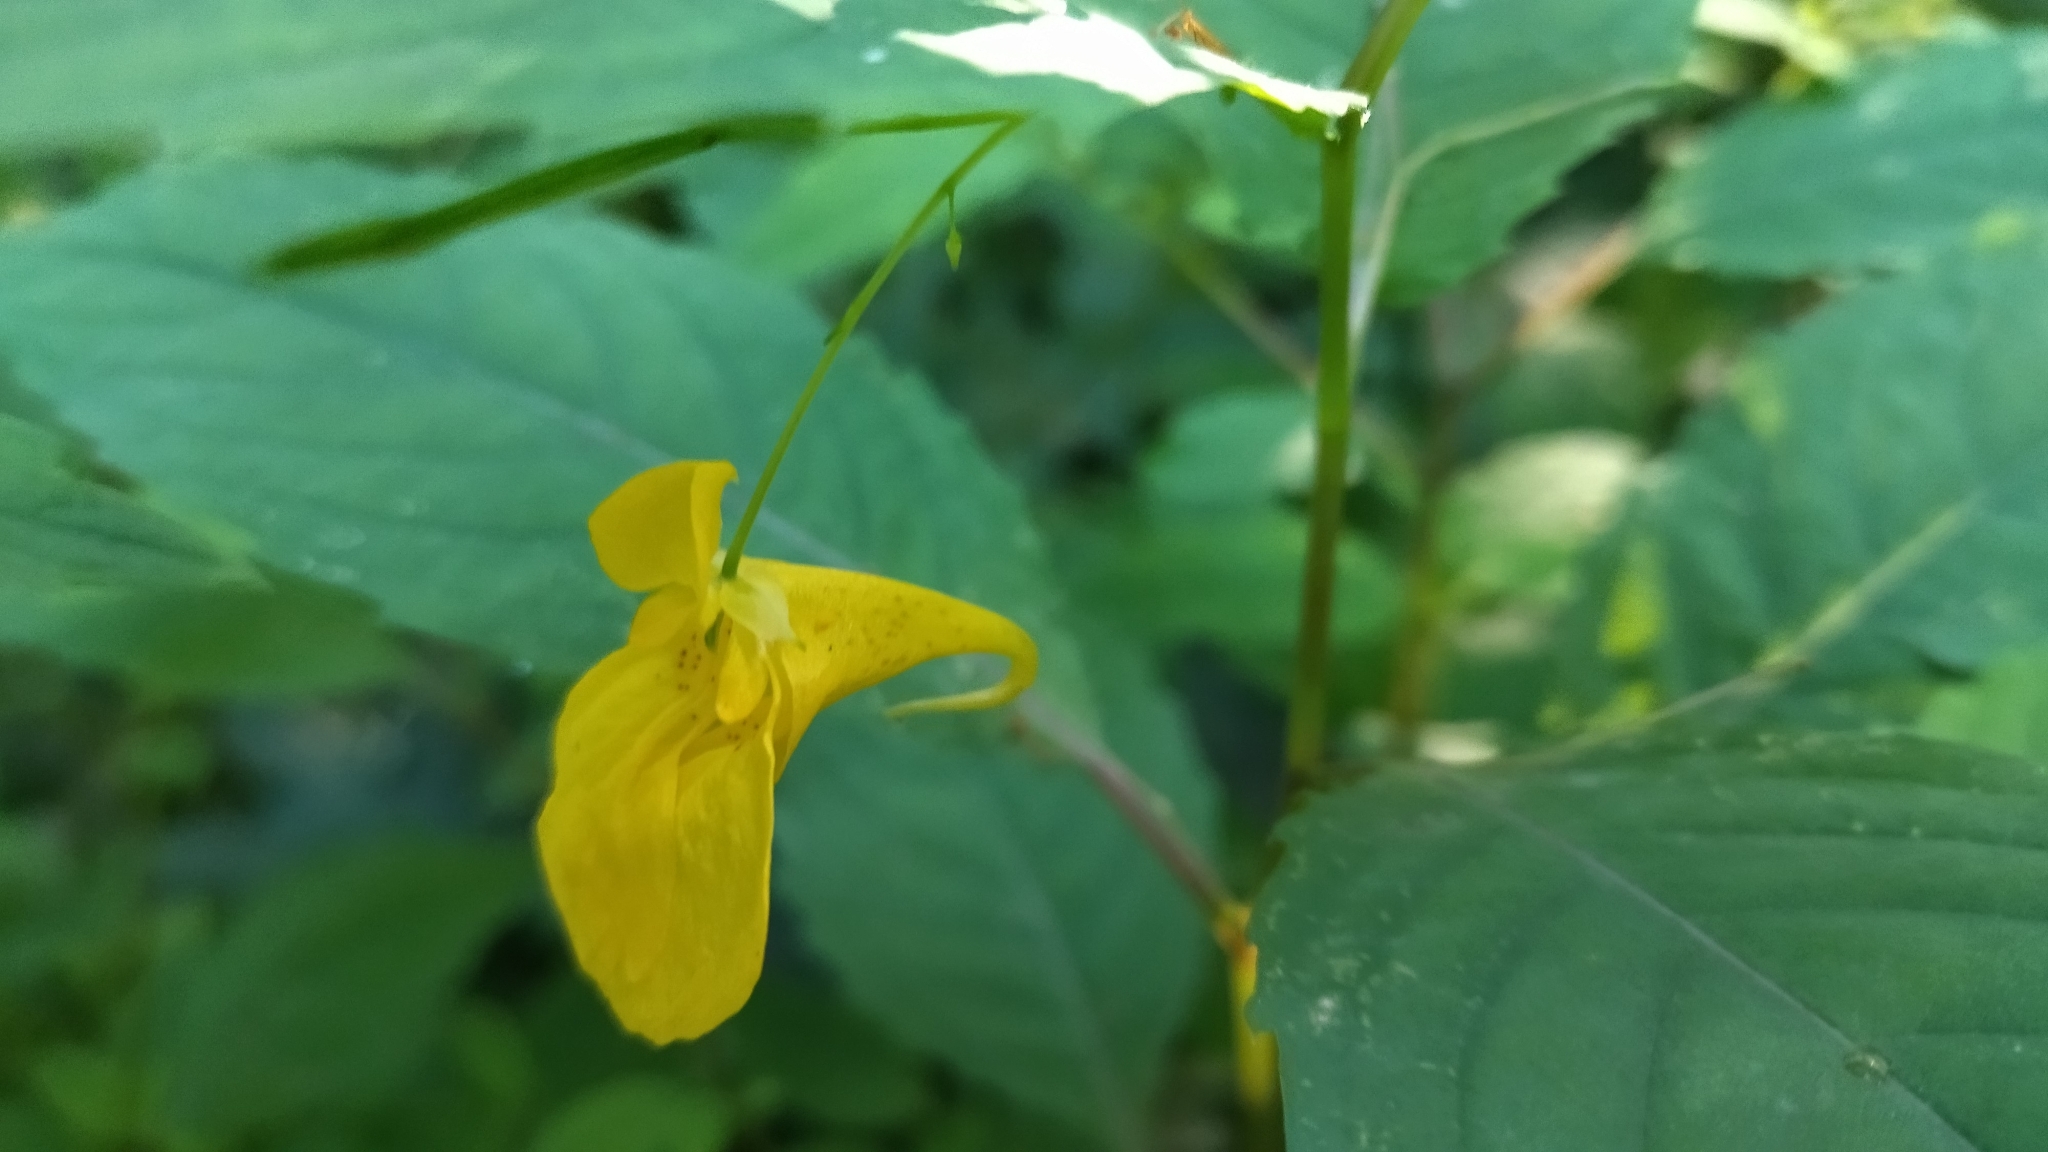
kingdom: Plantae
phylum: Tracheophyta
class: Magnoliopsida
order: Ericales
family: Balsaminaceae
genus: Impatiens
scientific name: Impatiens noli-tangere
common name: Touch-me-not balsam
